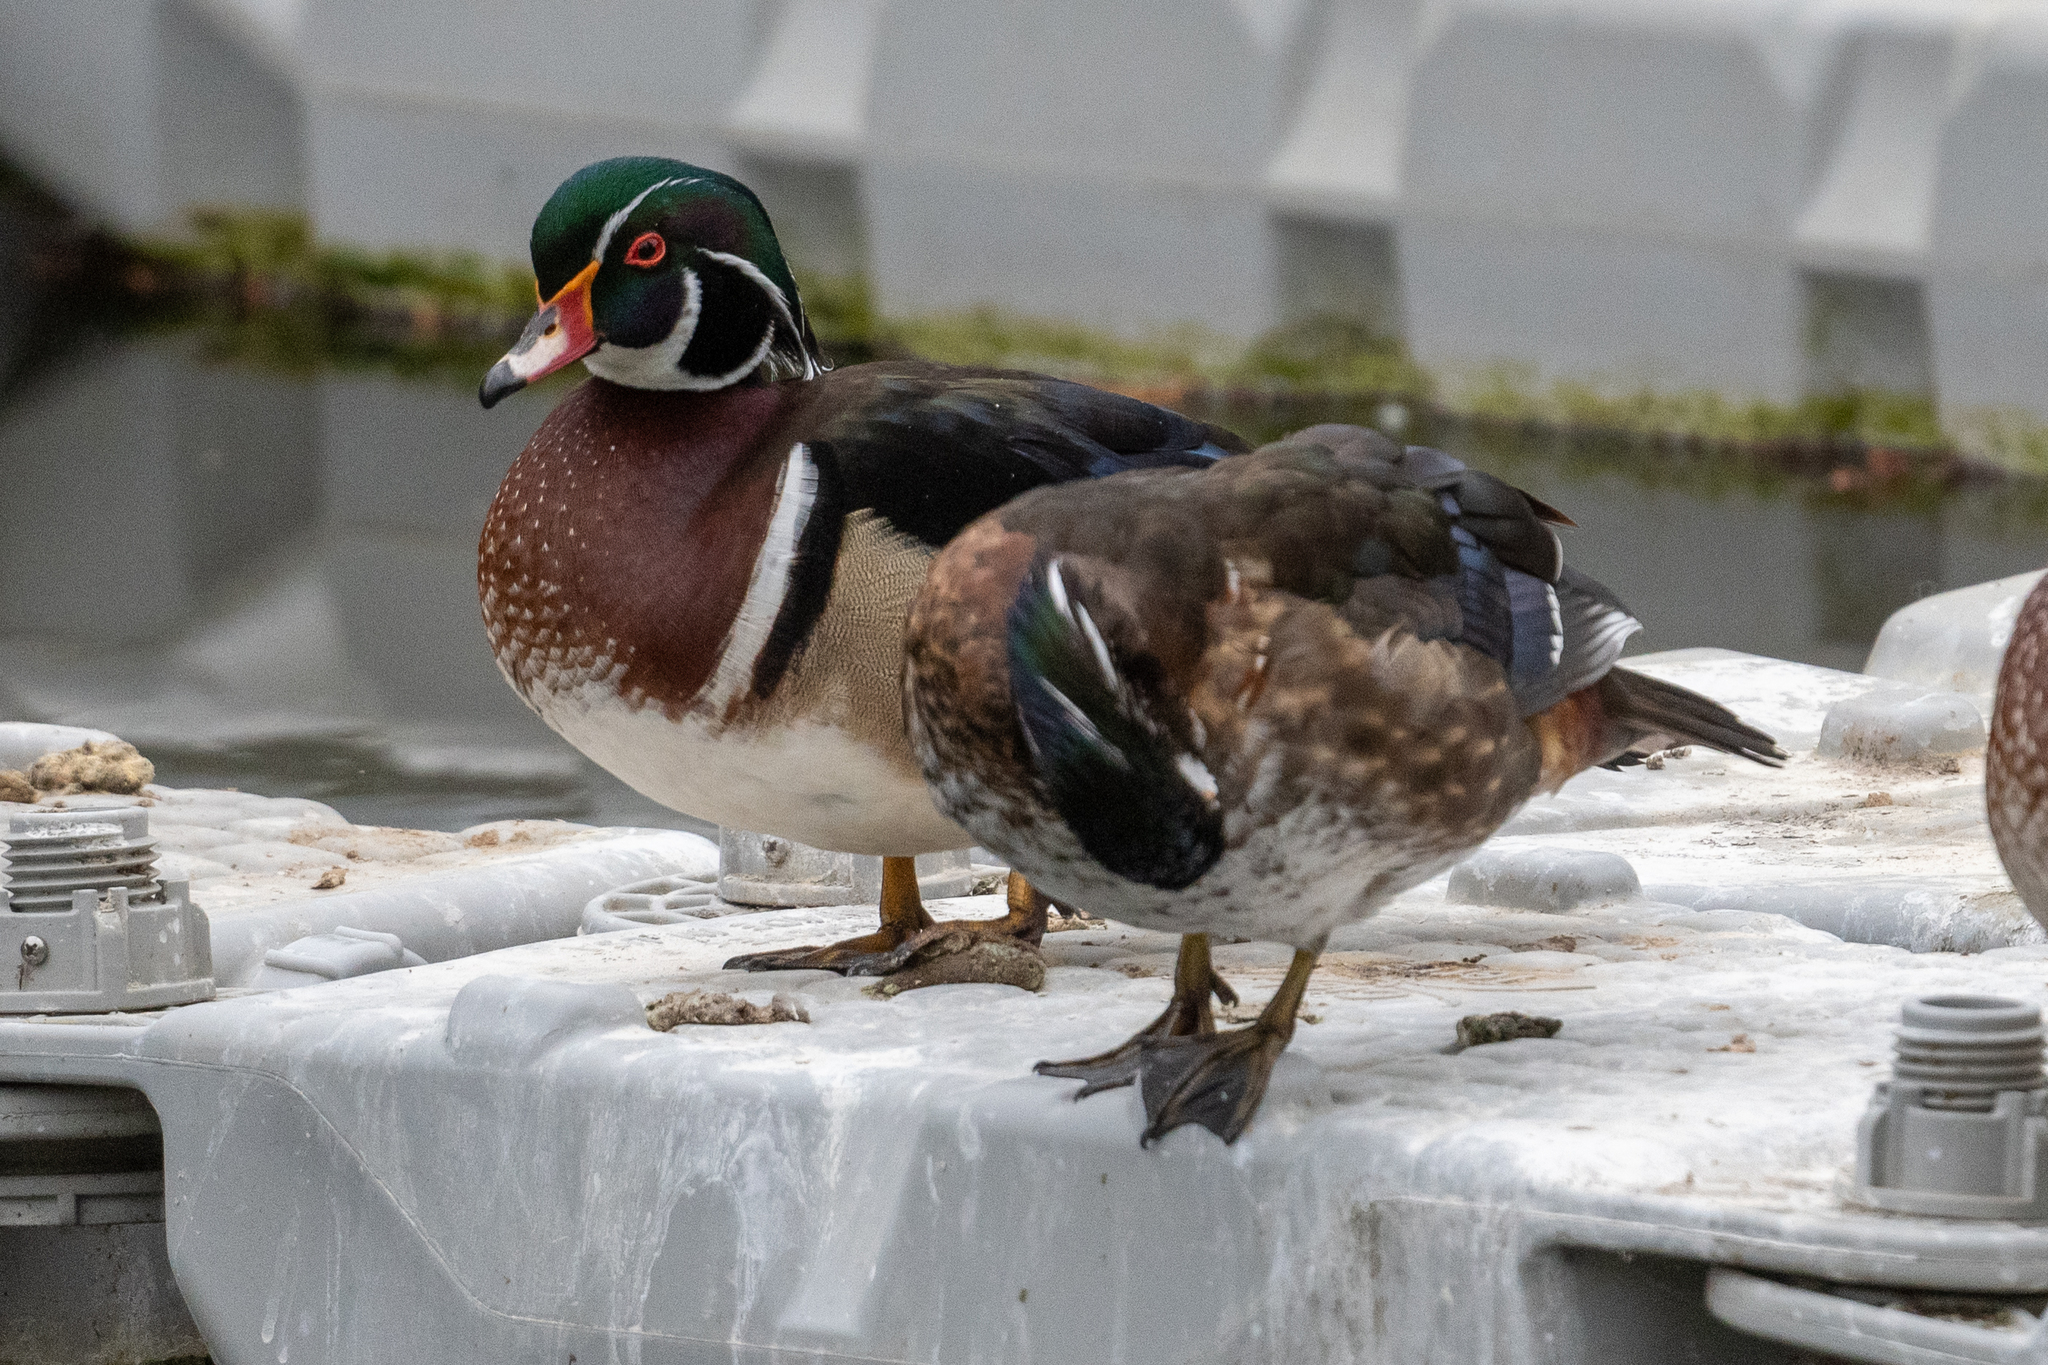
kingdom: Animalia
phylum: Chordata
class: Aves
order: Anseriformes
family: Anatidae
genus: Aix
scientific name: Aix sponsa
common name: Wood duck
